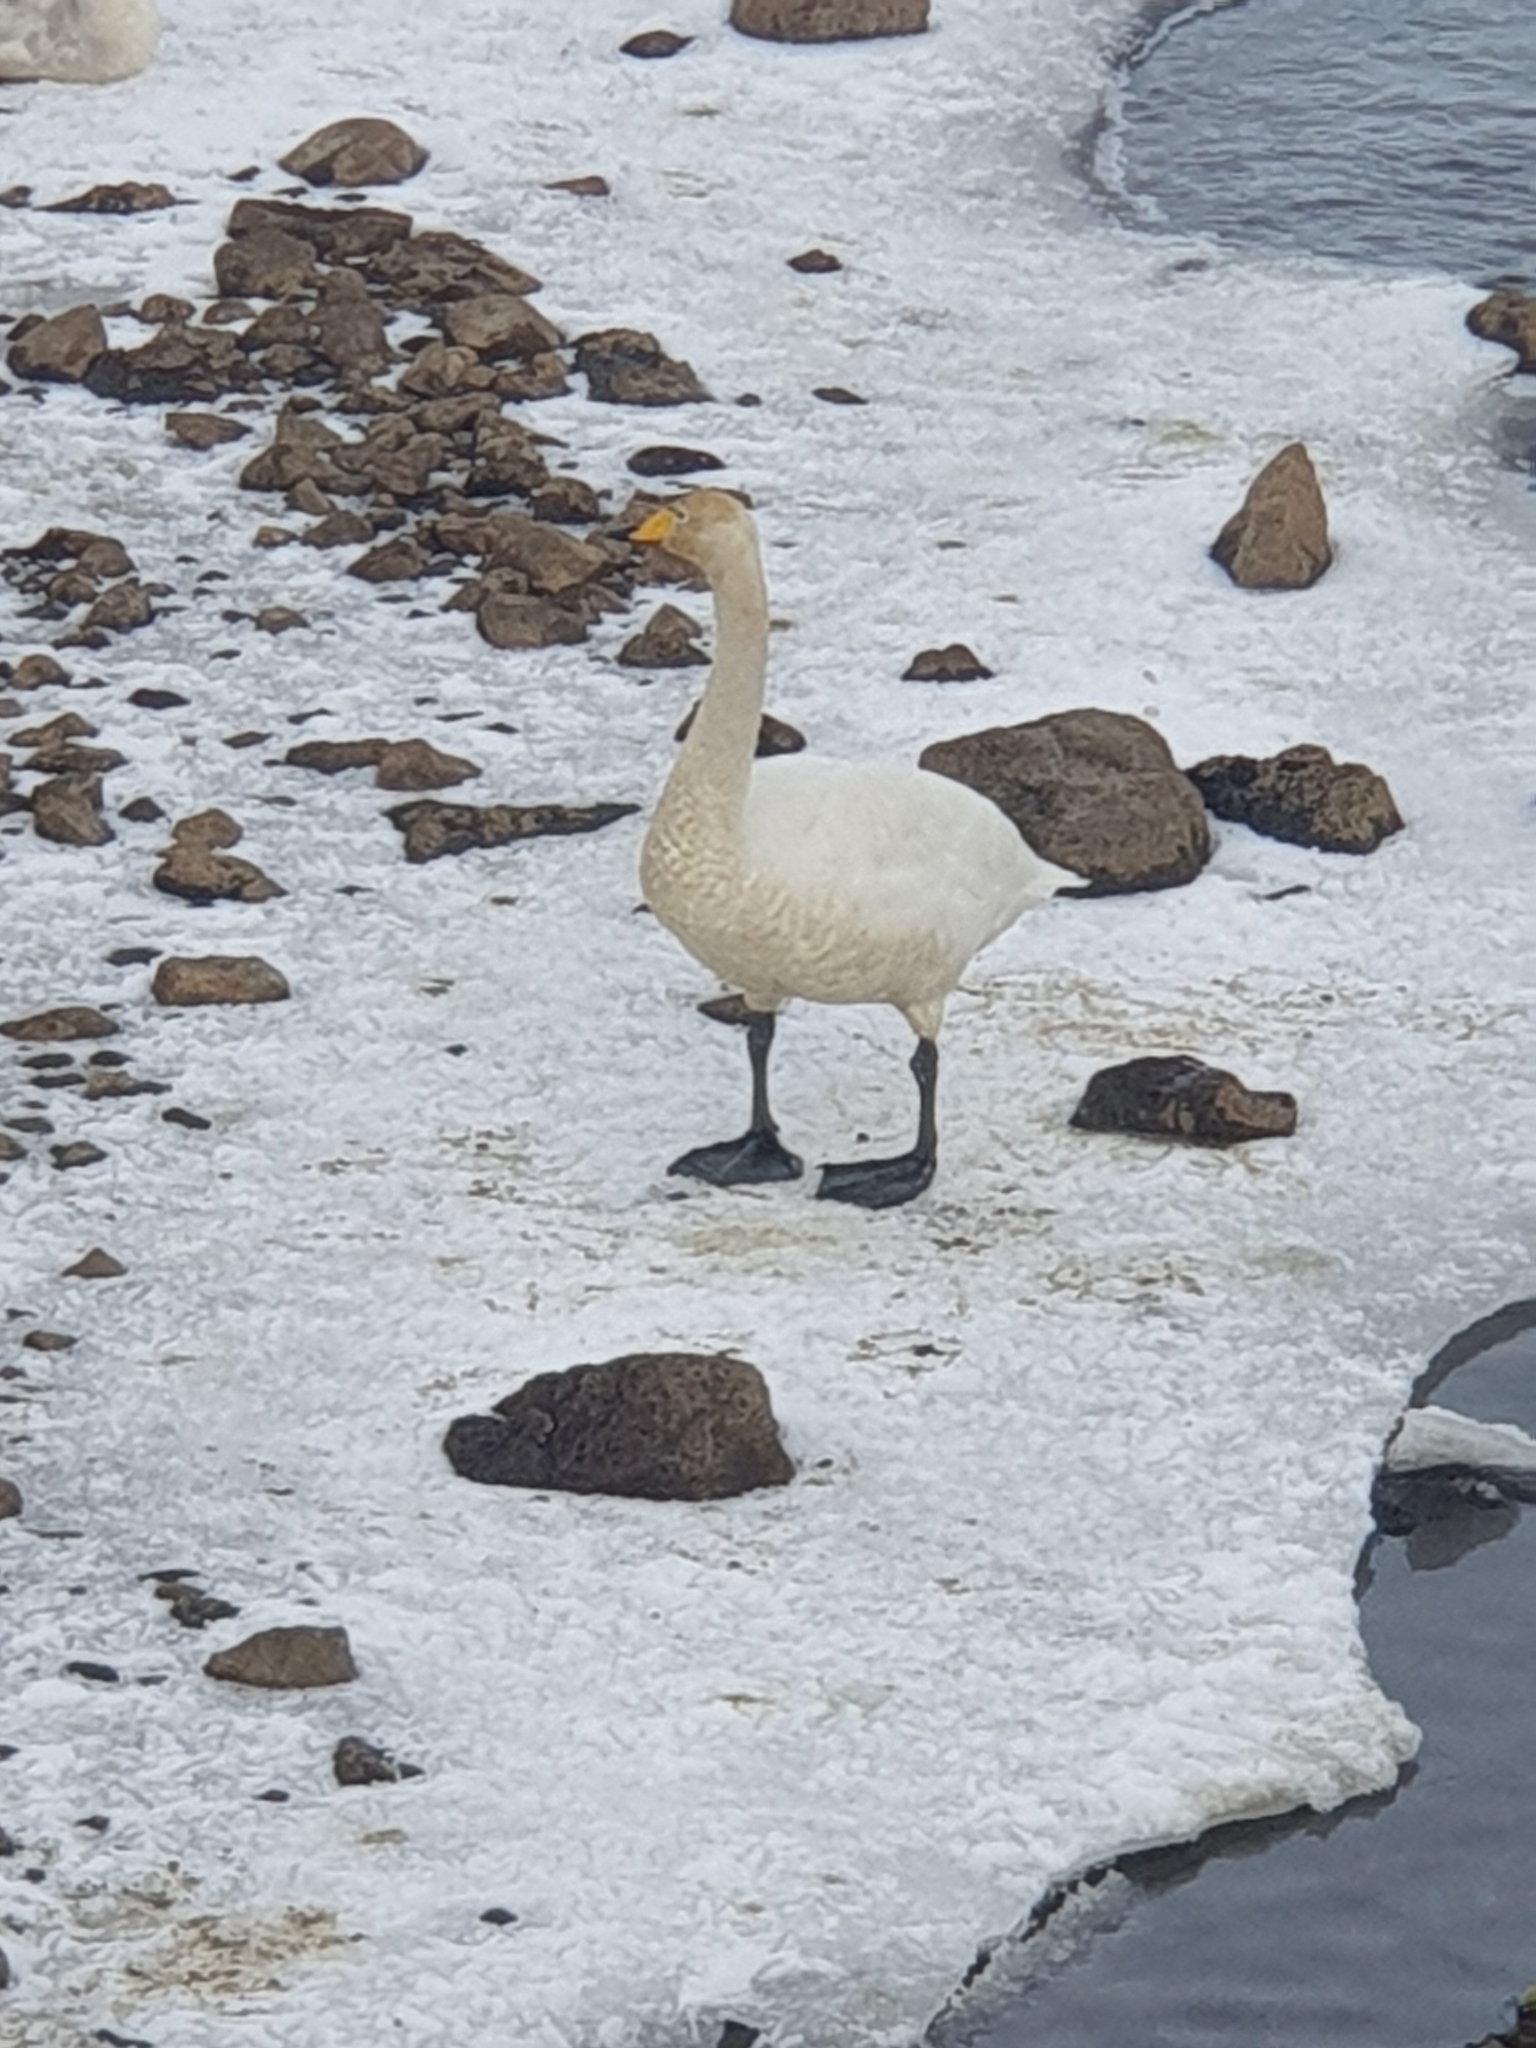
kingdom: Animalia
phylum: Chordata
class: Aves
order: Anseriformes
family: Anatidae
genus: Cygnus
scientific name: Cygnus cygnus
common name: Whooper swan
